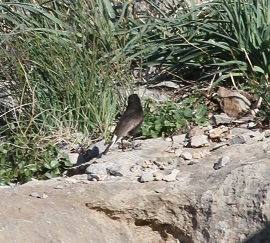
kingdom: Animalia
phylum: Chordata
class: Aves
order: Passeriformes
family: Muscicapidae
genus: Oenanthe
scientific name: Oenanthe leucura
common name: Black wheatear
